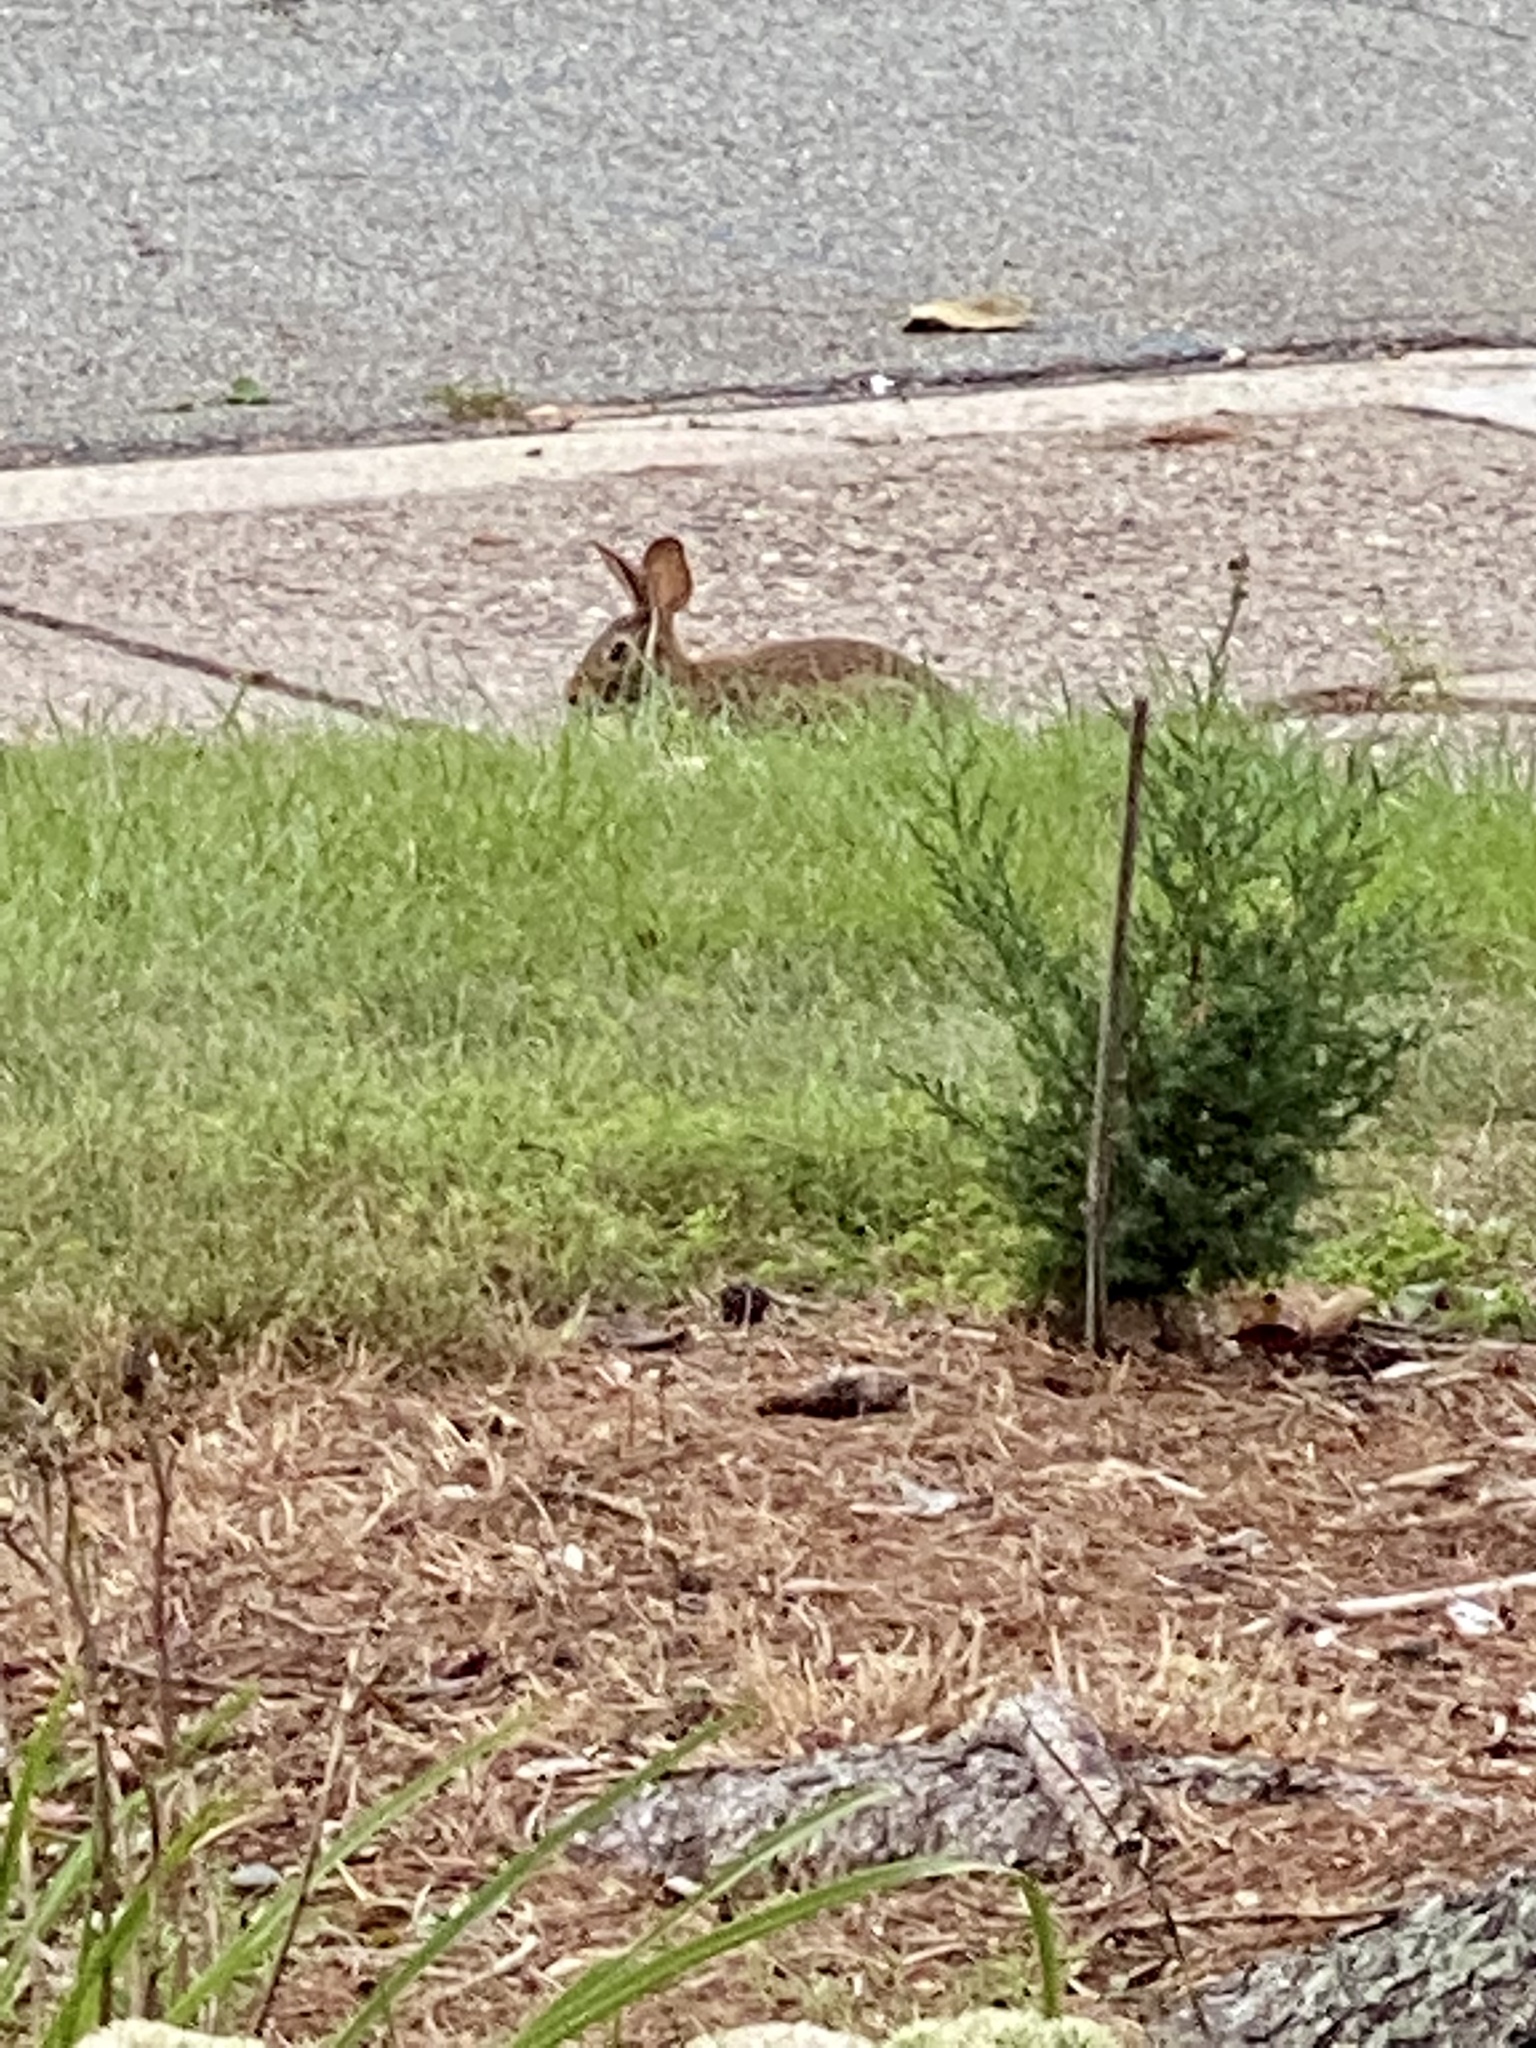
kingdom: Animalia
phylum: Chordata
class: Mammalia
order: Lagomorpha
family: Leporidae
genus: Sylvilagus
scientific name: Sylvilagus floridanus
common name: Eastern cottontail
